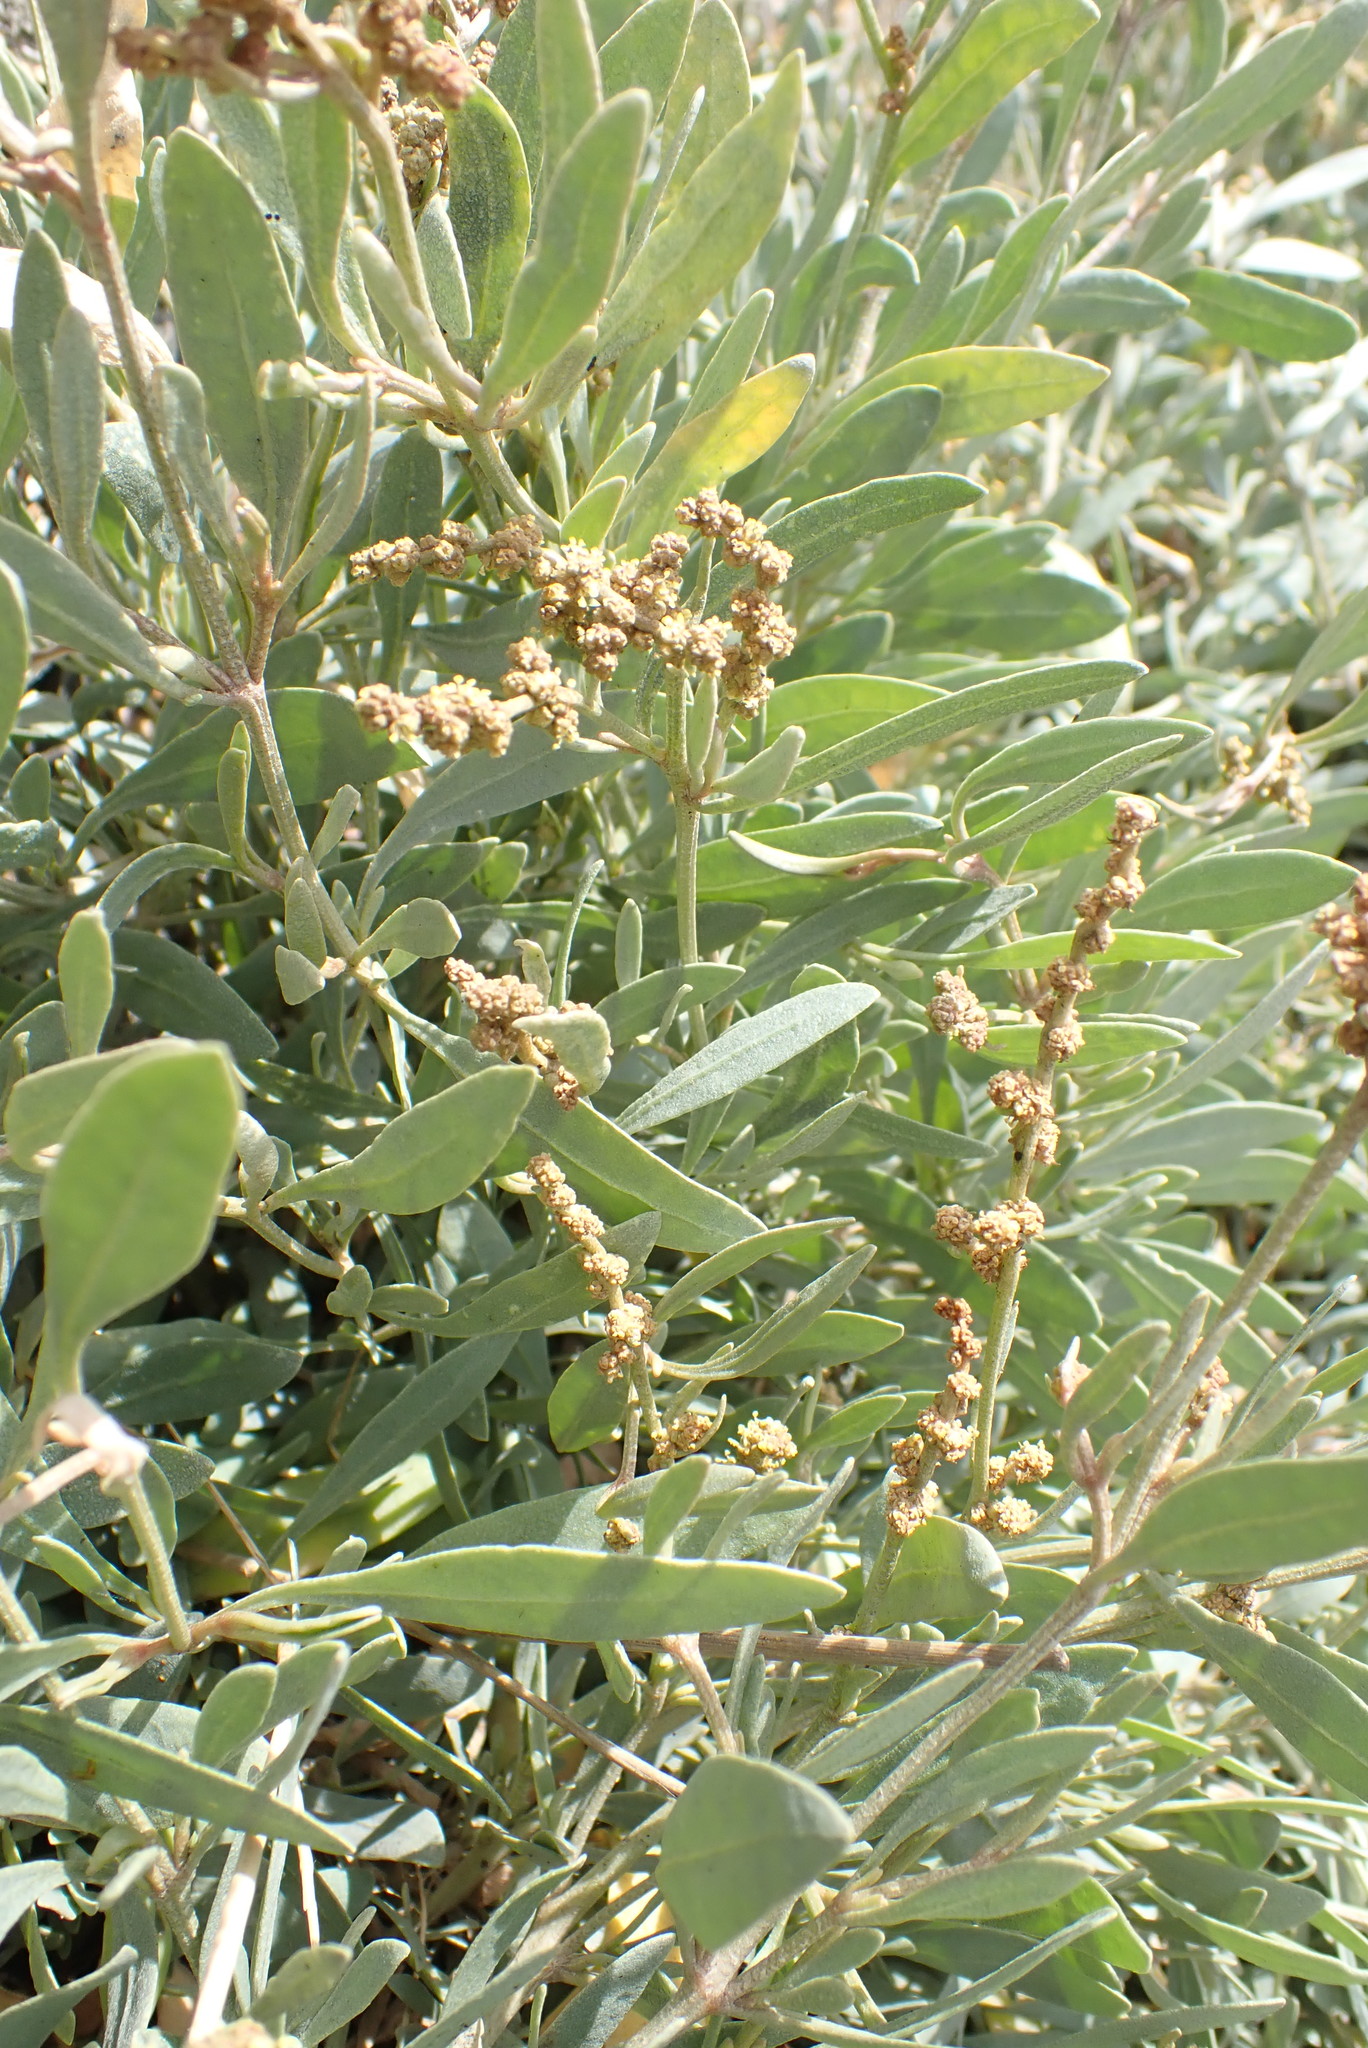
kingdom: Plantae
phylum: Tracheophyta
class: Magnoliopsida
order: Caryophyllales
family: Amaranthaceae
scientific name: Amaranthaceae
